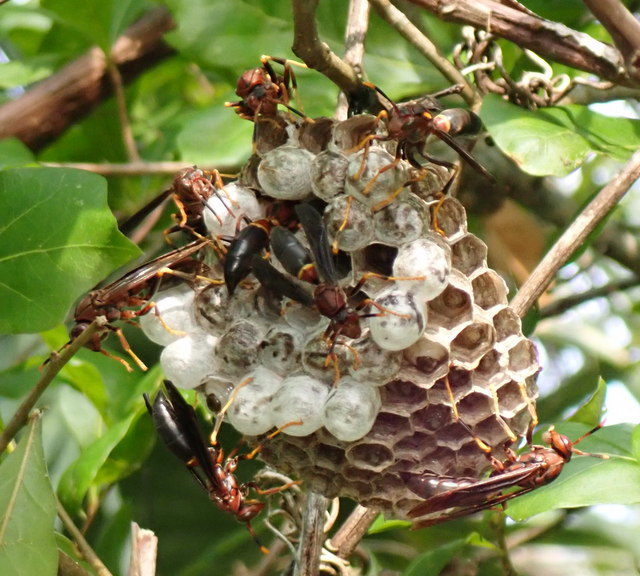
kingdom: Animalia
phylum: Arthropoda
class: Insecta
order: Hymenoptera
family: Eumenidae
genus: Polistes
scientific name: Polistes annularis
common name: Ringed paper wasp
